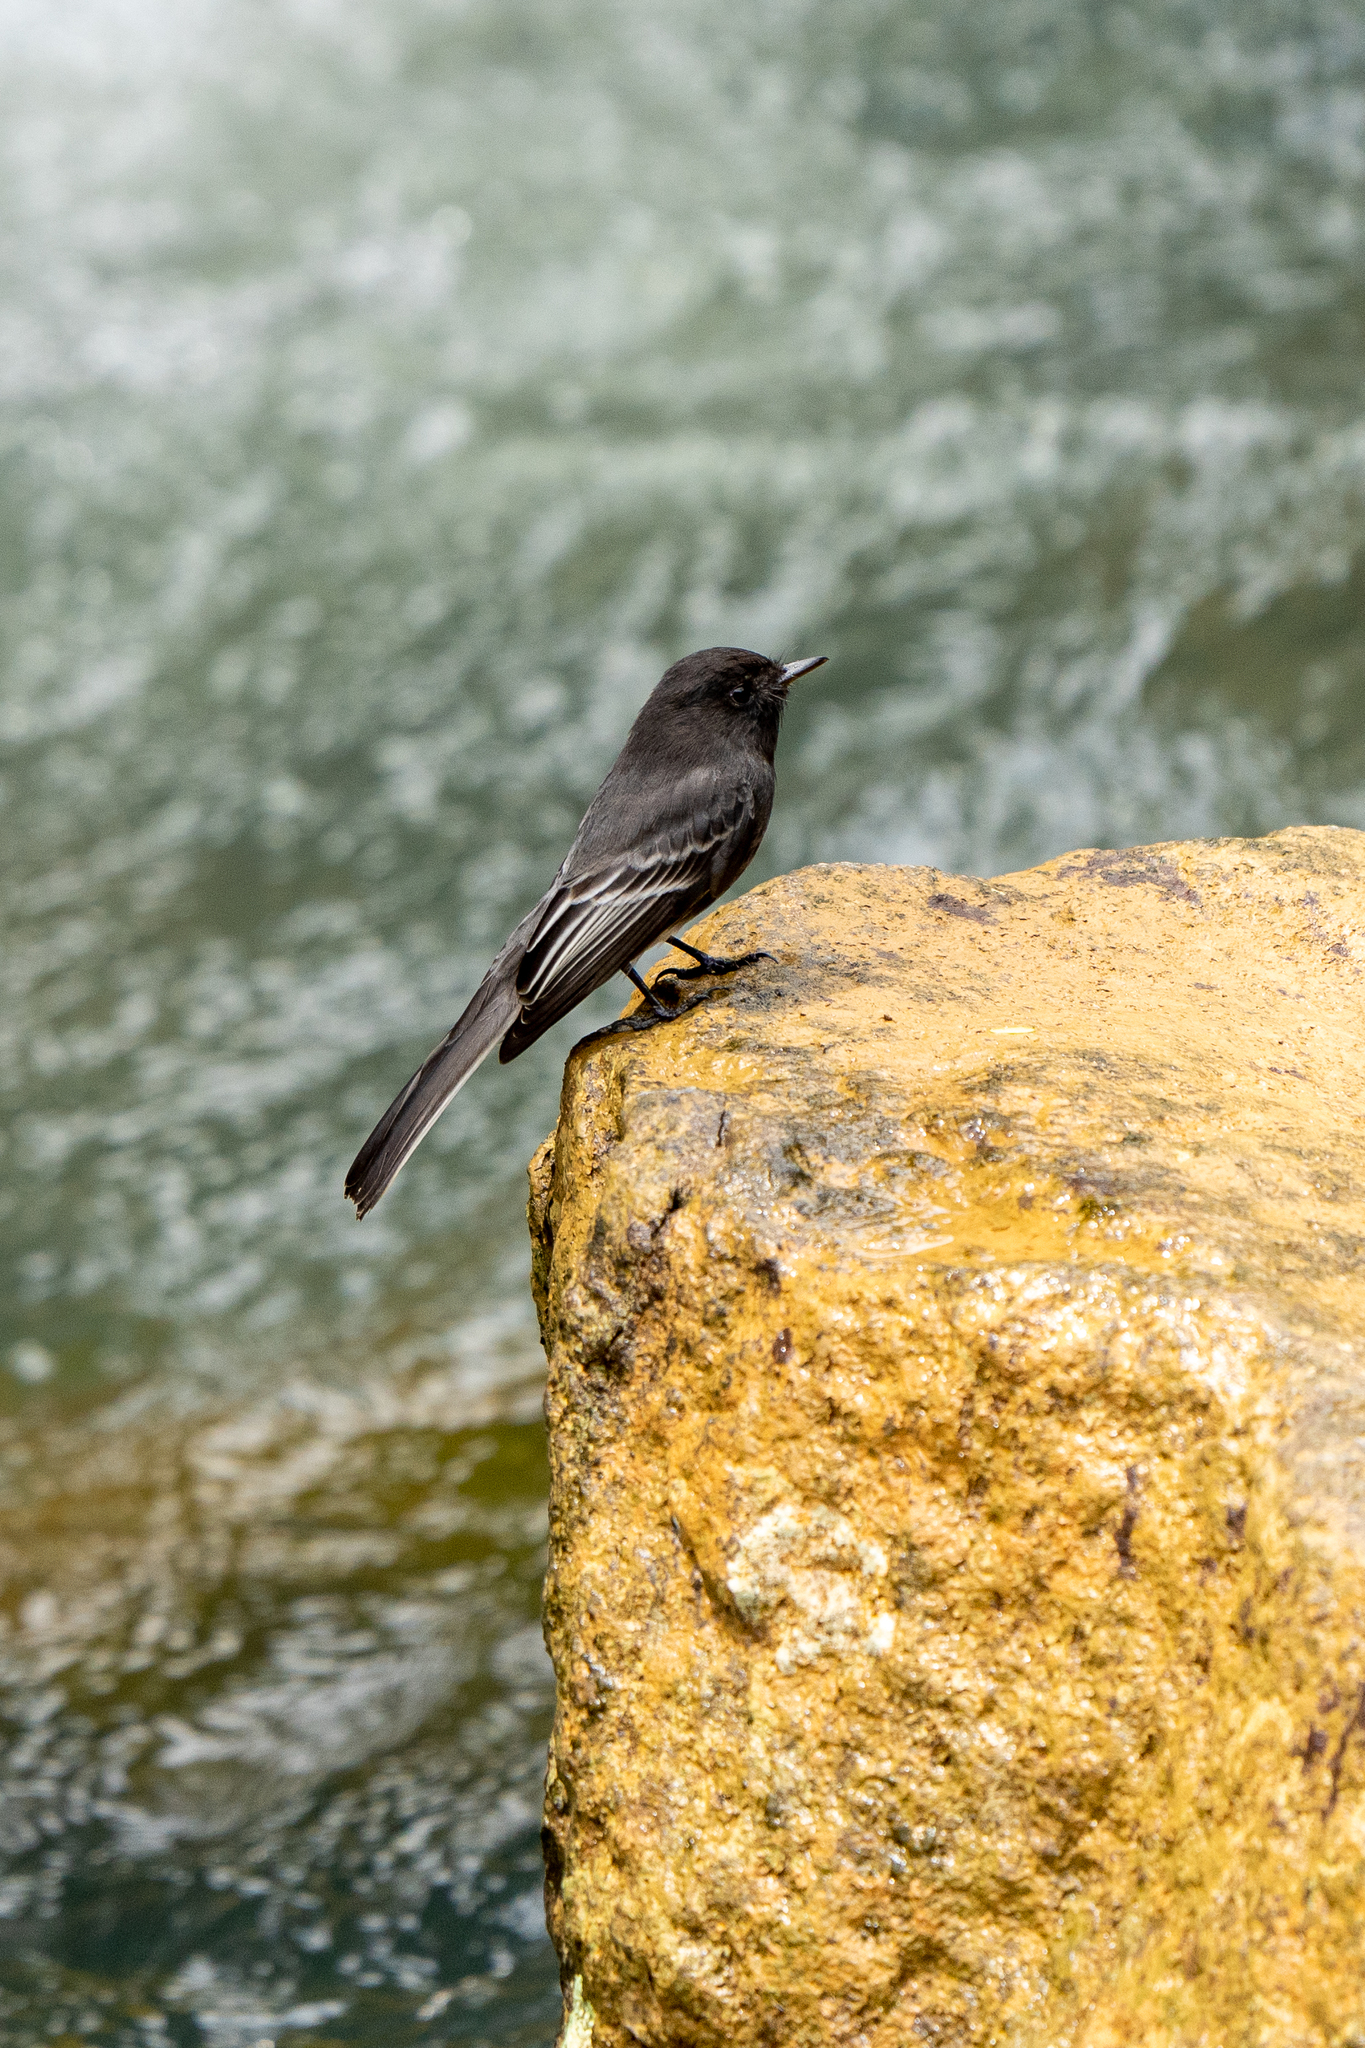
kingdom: Animalia
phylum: Chordata
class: Aves
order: Passeriformes
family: Tyrannidae
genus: Sayornis
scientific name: Sayornis nigricans
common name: Black phoebe
